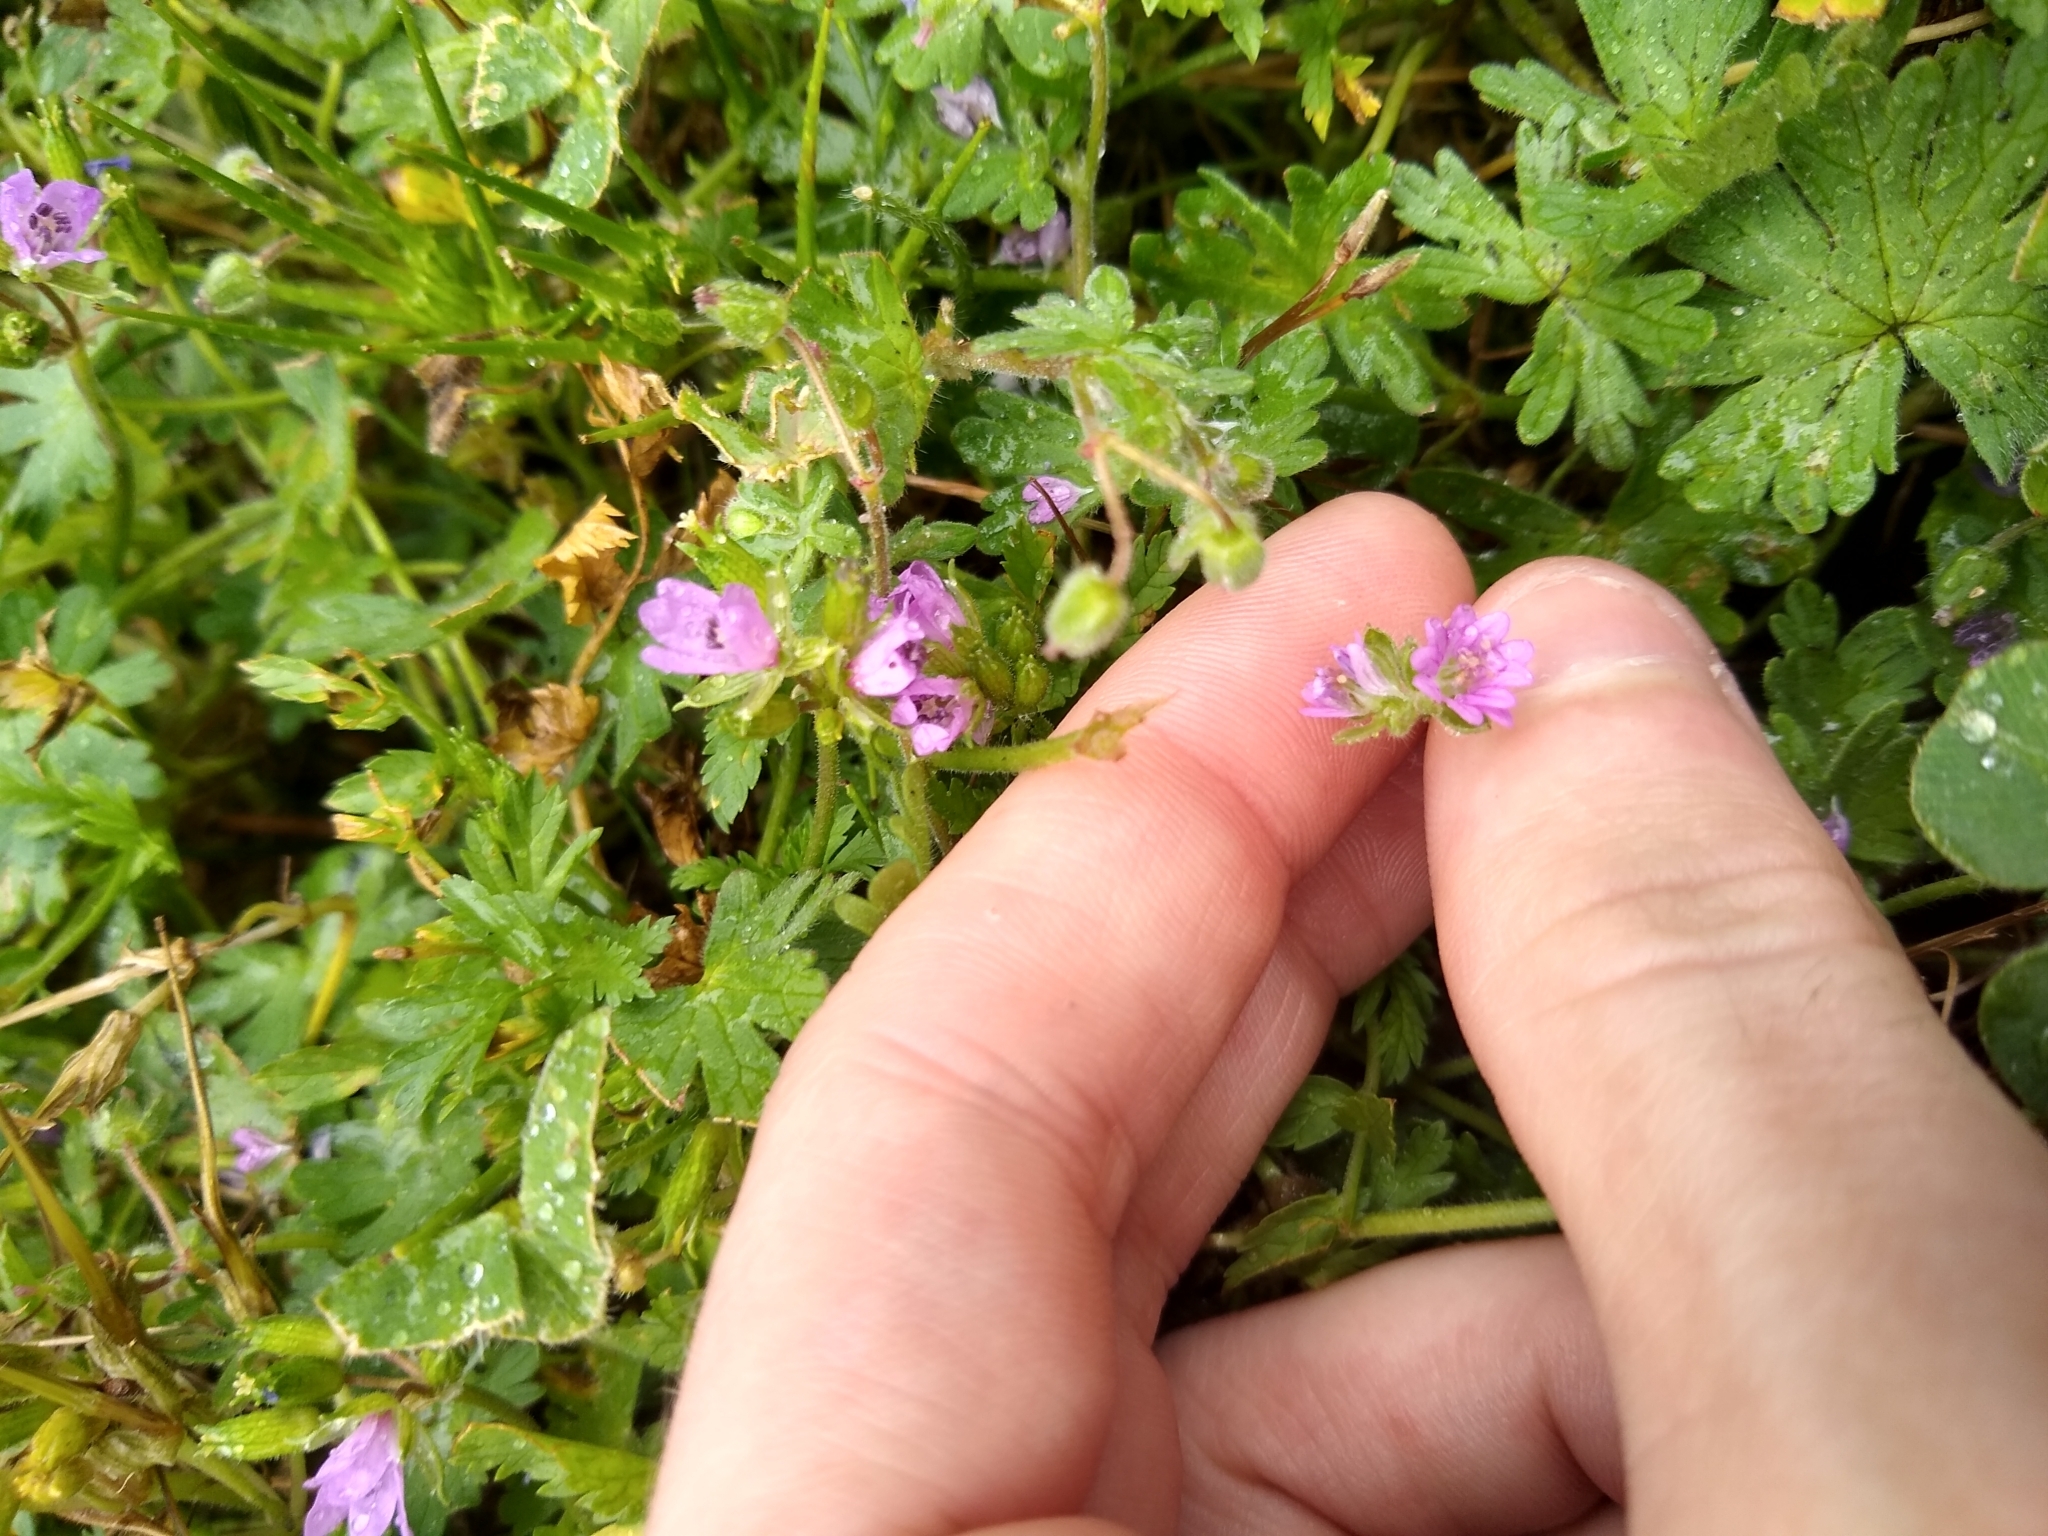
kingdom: Plantae
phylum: Tracheophyta
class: Magnoliopsida
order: Geraniales
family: Geraniaceae
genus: Geranium
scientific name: Geranium molle
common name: Dove's-foot crane's-bill
